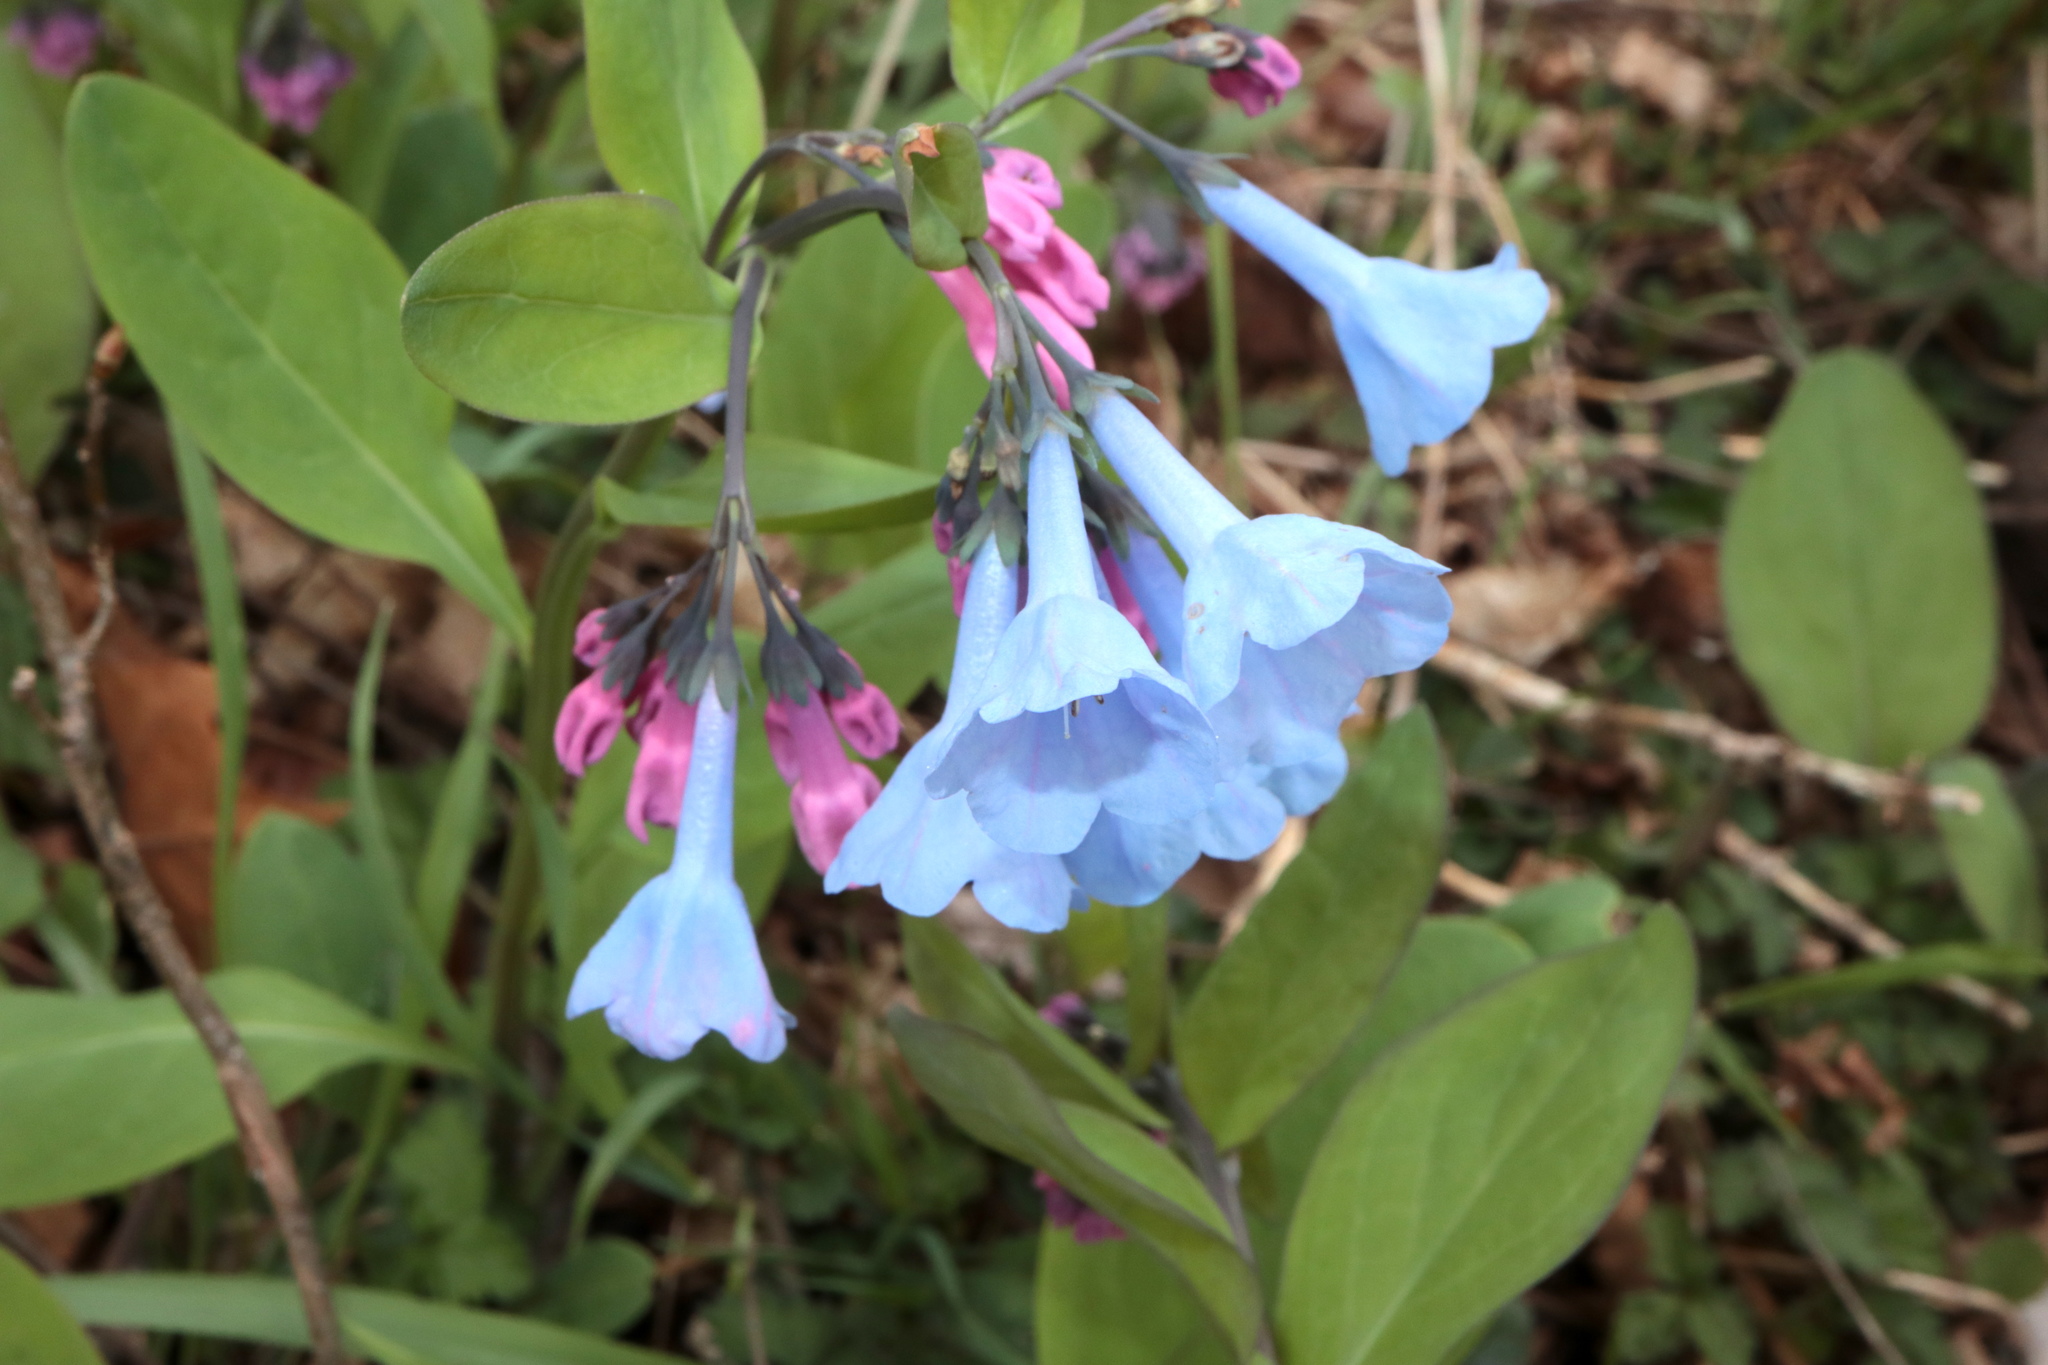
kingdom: Plantae
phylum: Tracheophyta
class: Magnoliopsida
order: Boraginales
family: Boraginaceae
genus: Mertensia
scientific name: Mertensia virginica
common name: Virginia bluebells
